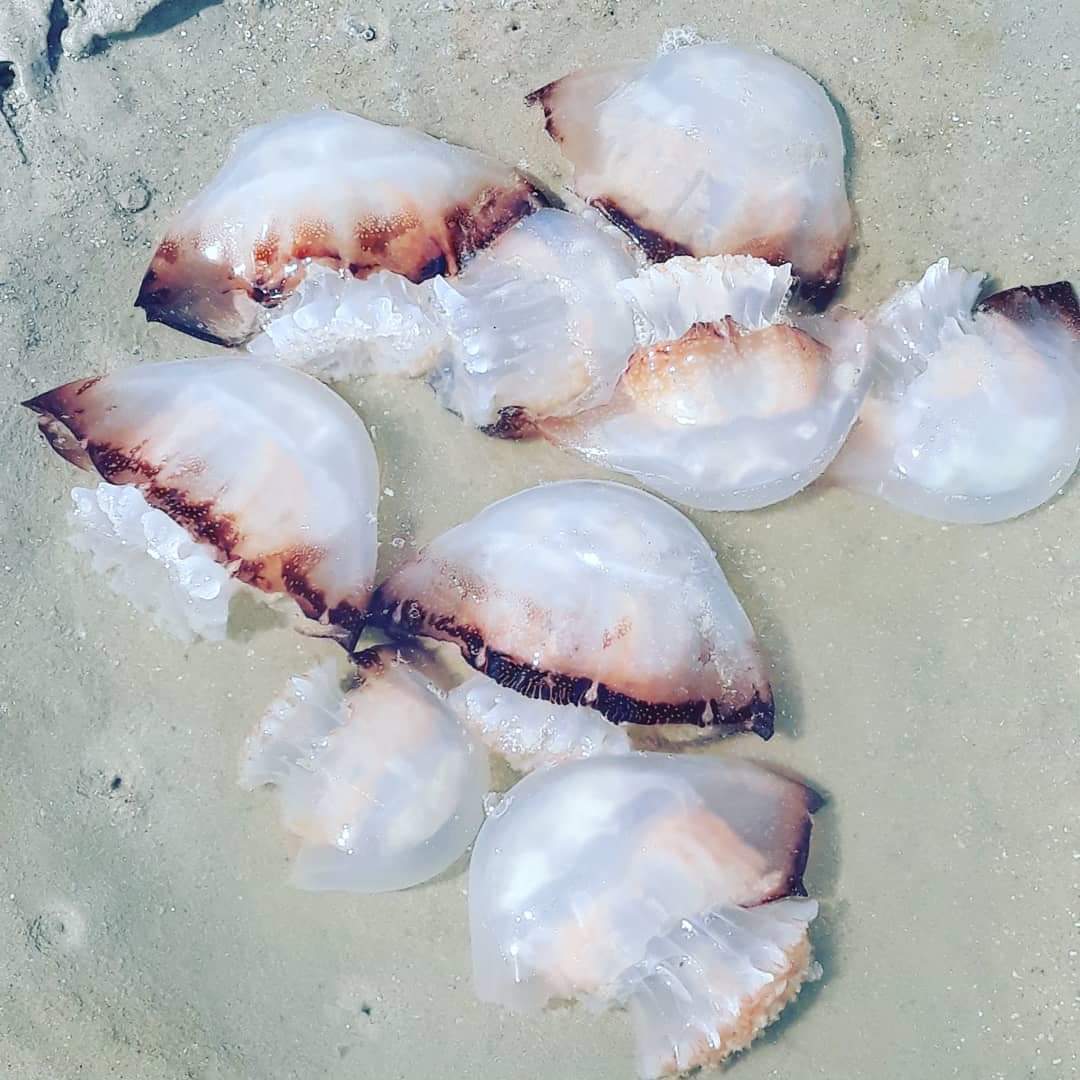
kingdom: Animalia
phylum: Cnidaria
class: Scyphozoa
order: Rhizostomeae
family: Stomolophidae
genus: Stomolophus
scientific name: Stomolophus meleagris
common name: Cabbagehead
